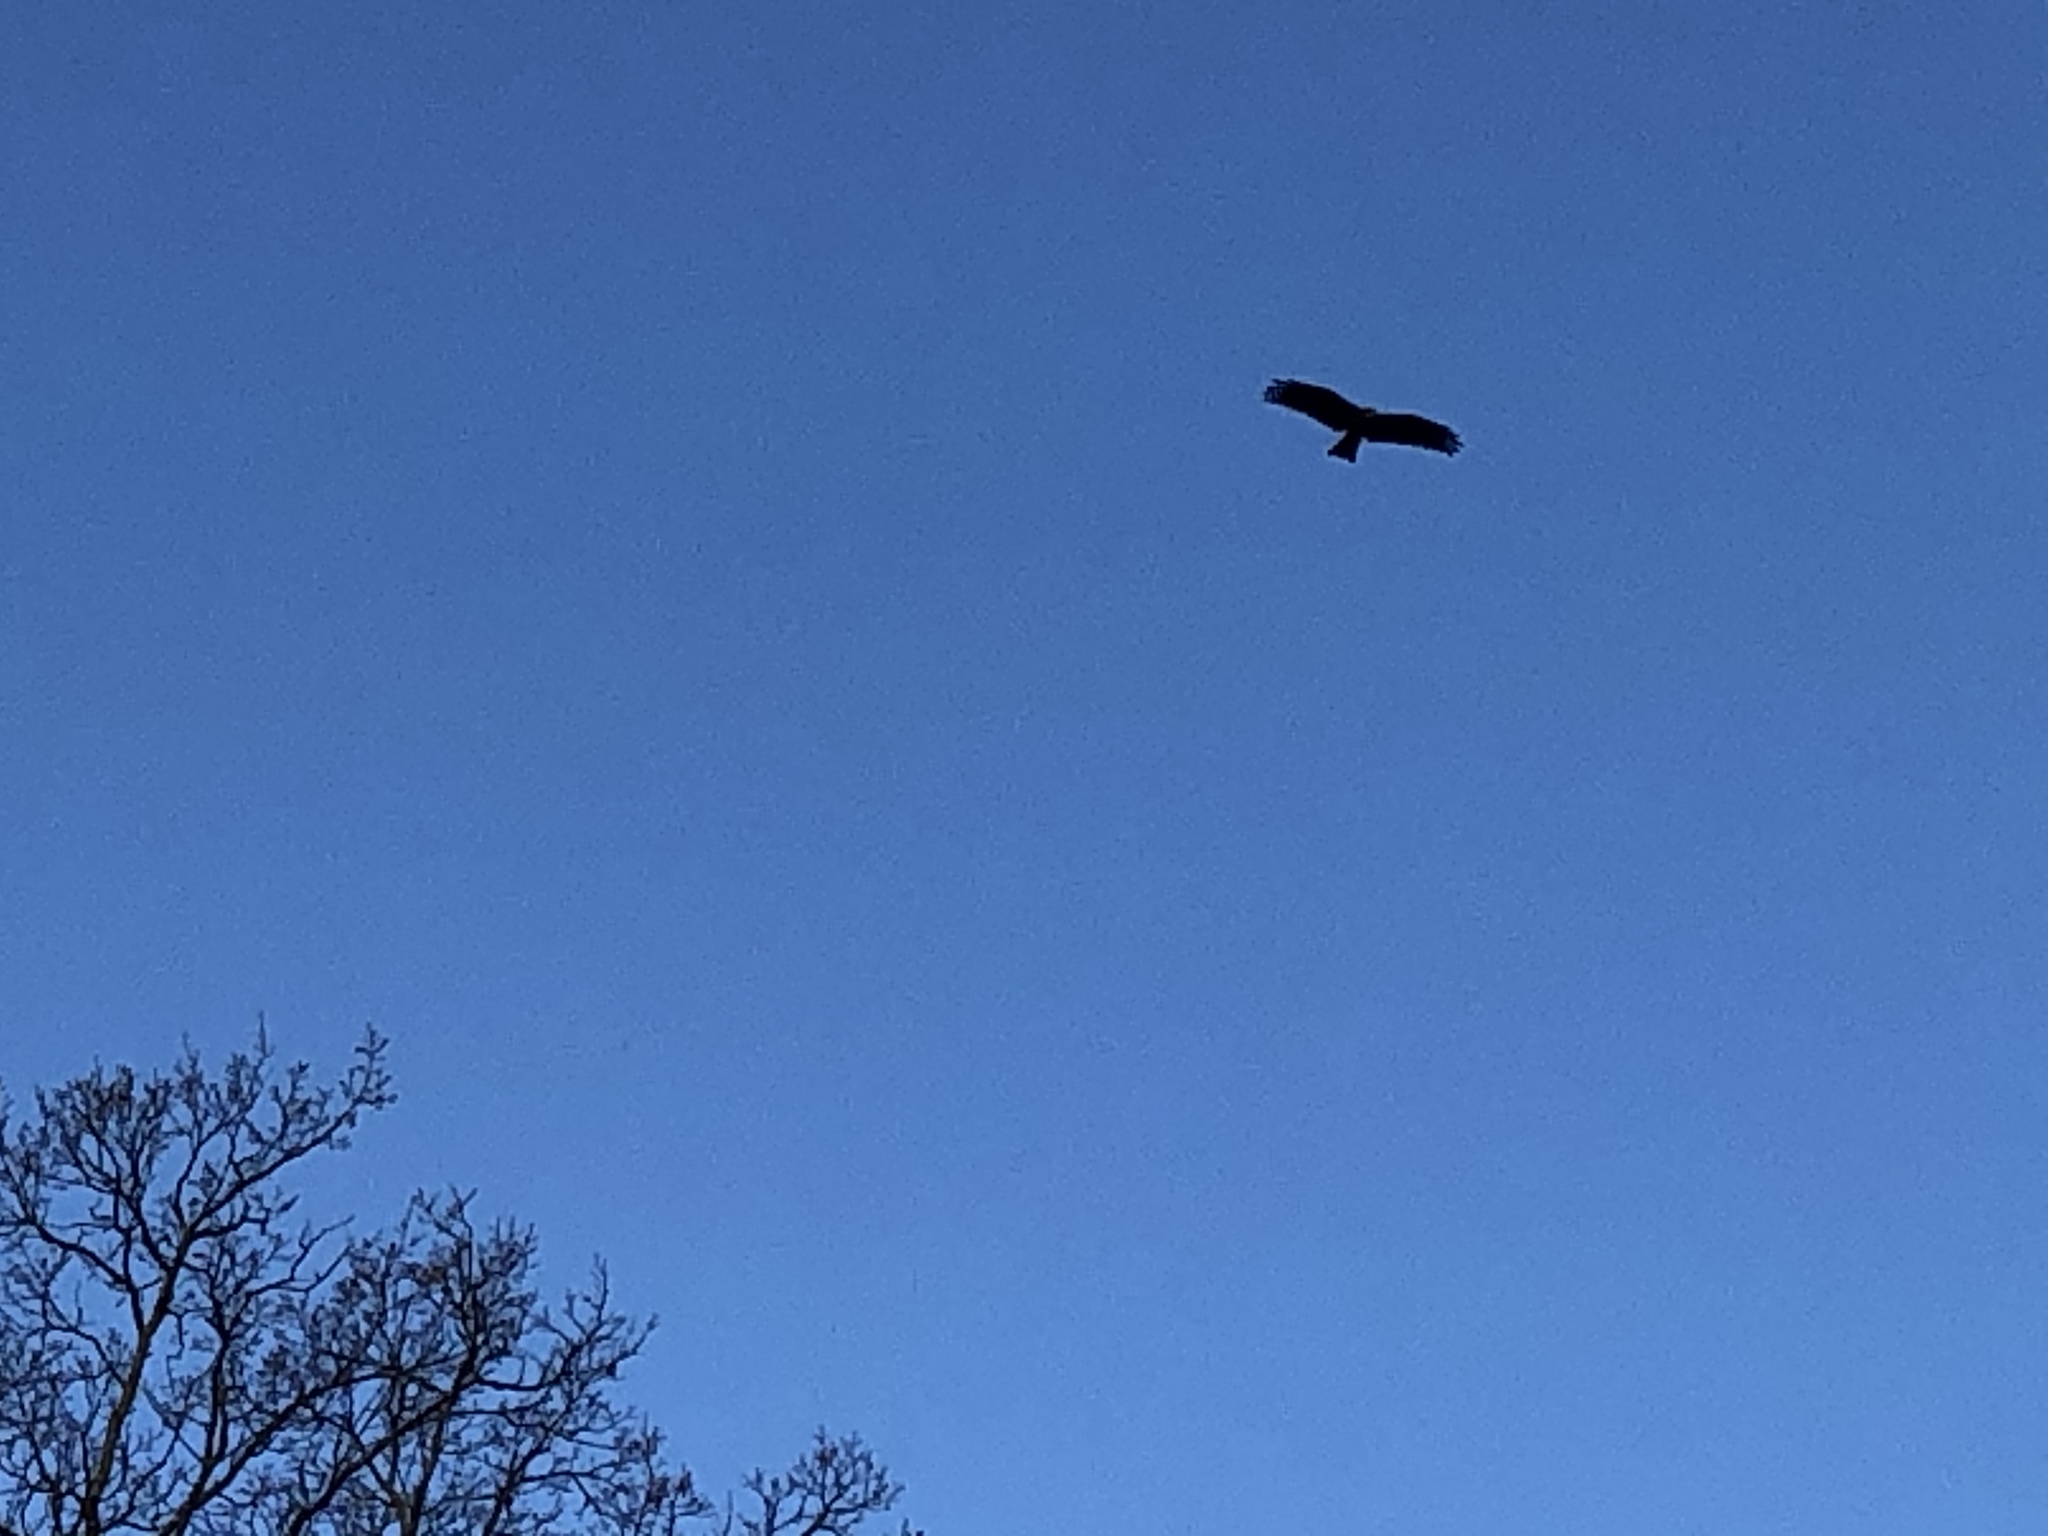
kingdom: Animalia
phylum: Chordata
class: Aves
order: Accipitriformes
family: Accipitridae
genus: Milvus
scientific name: Milvus migrans
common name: Black kite
